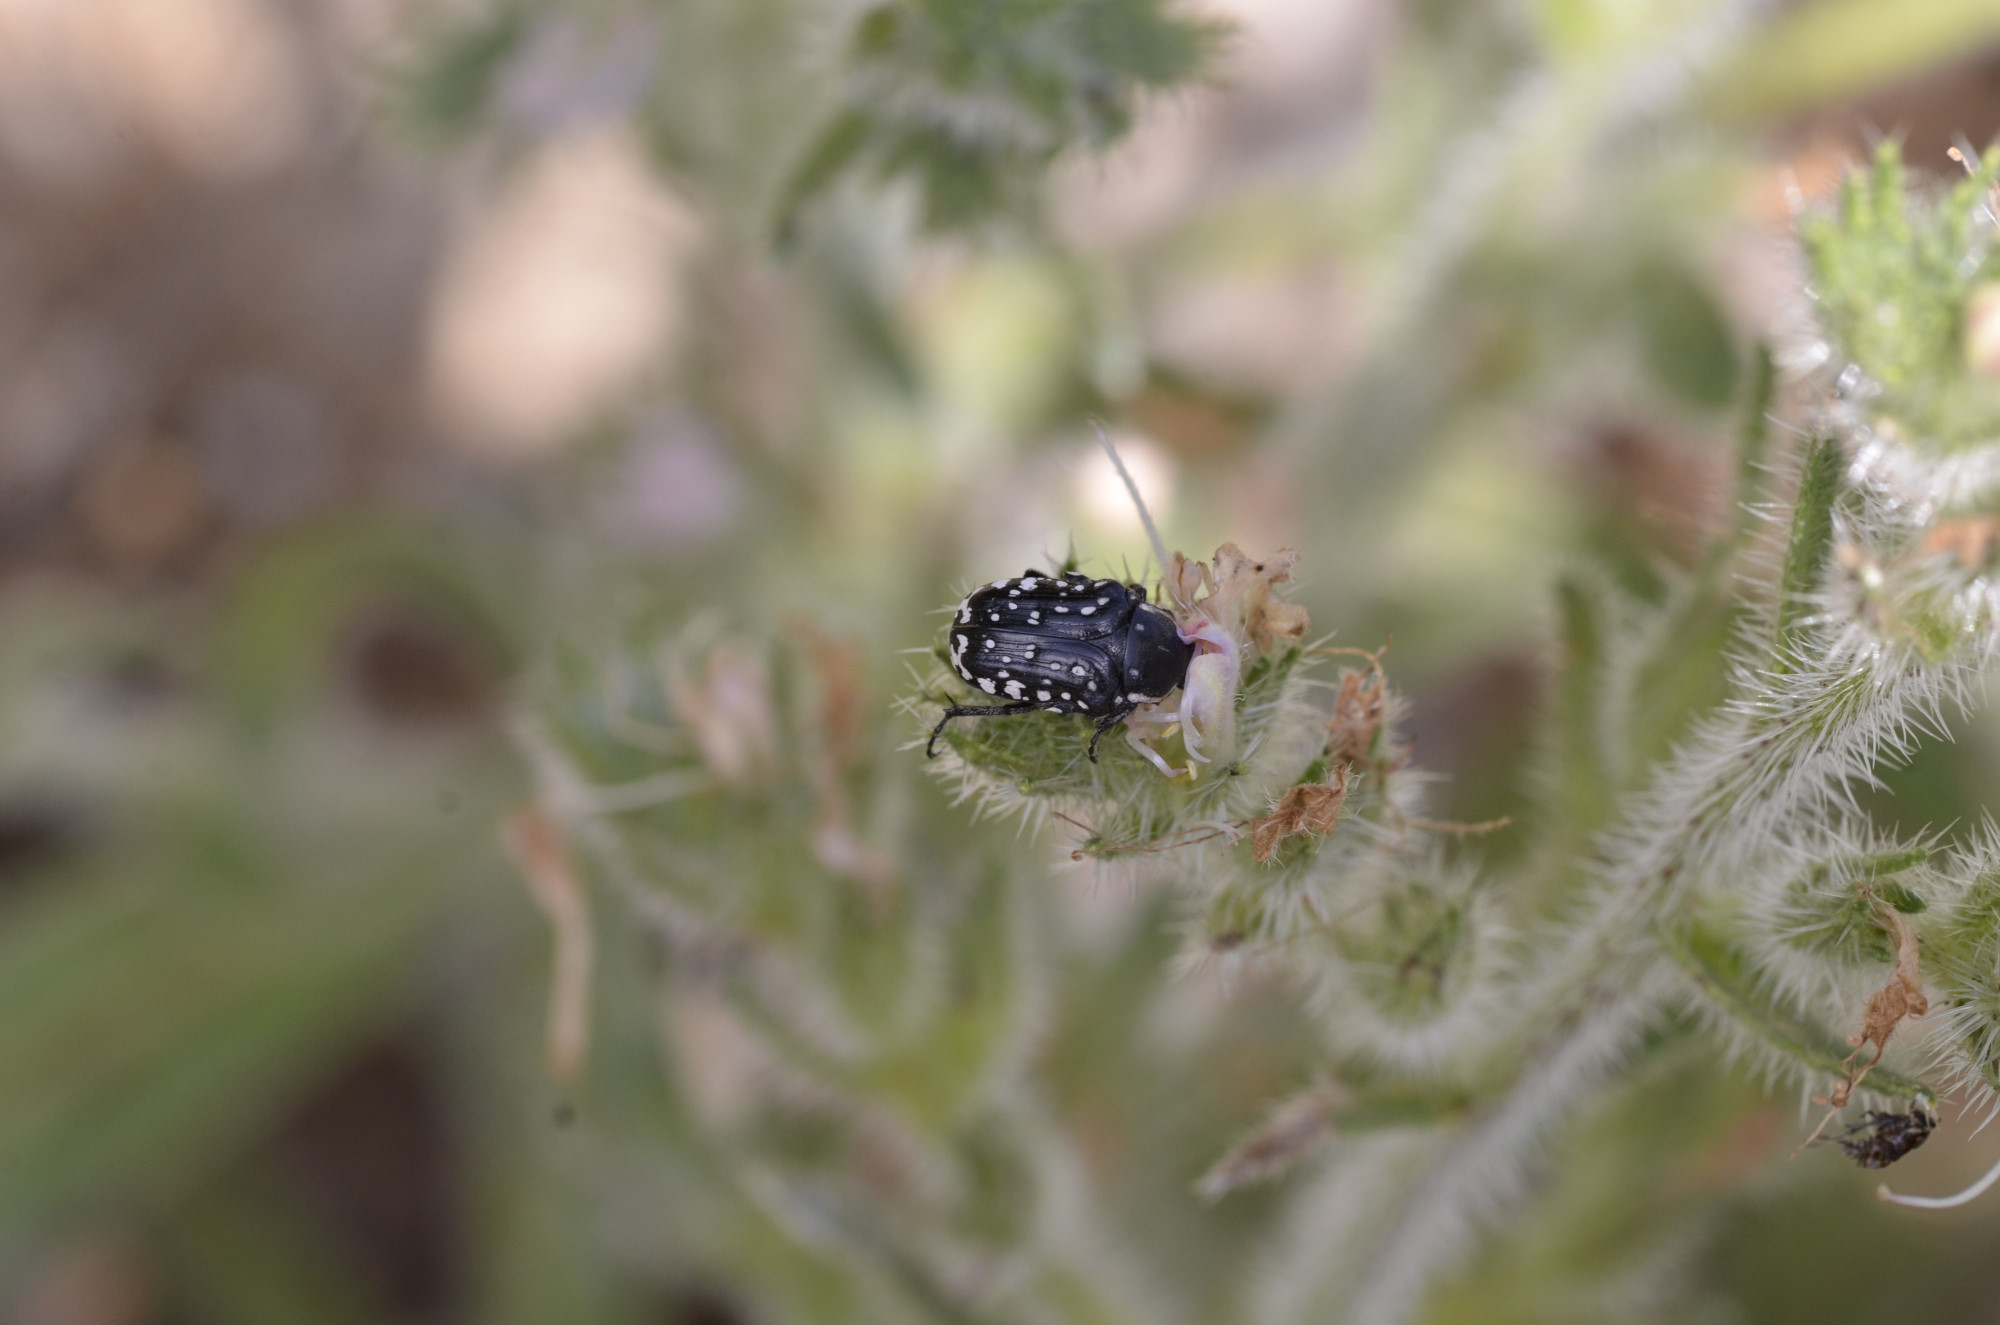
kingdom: Animalia
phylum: Arthropoda
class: Insecta
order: Coleoptera
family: Scarabaeidae
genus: Oxythyrea
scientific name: Oxythyrea cinctella
